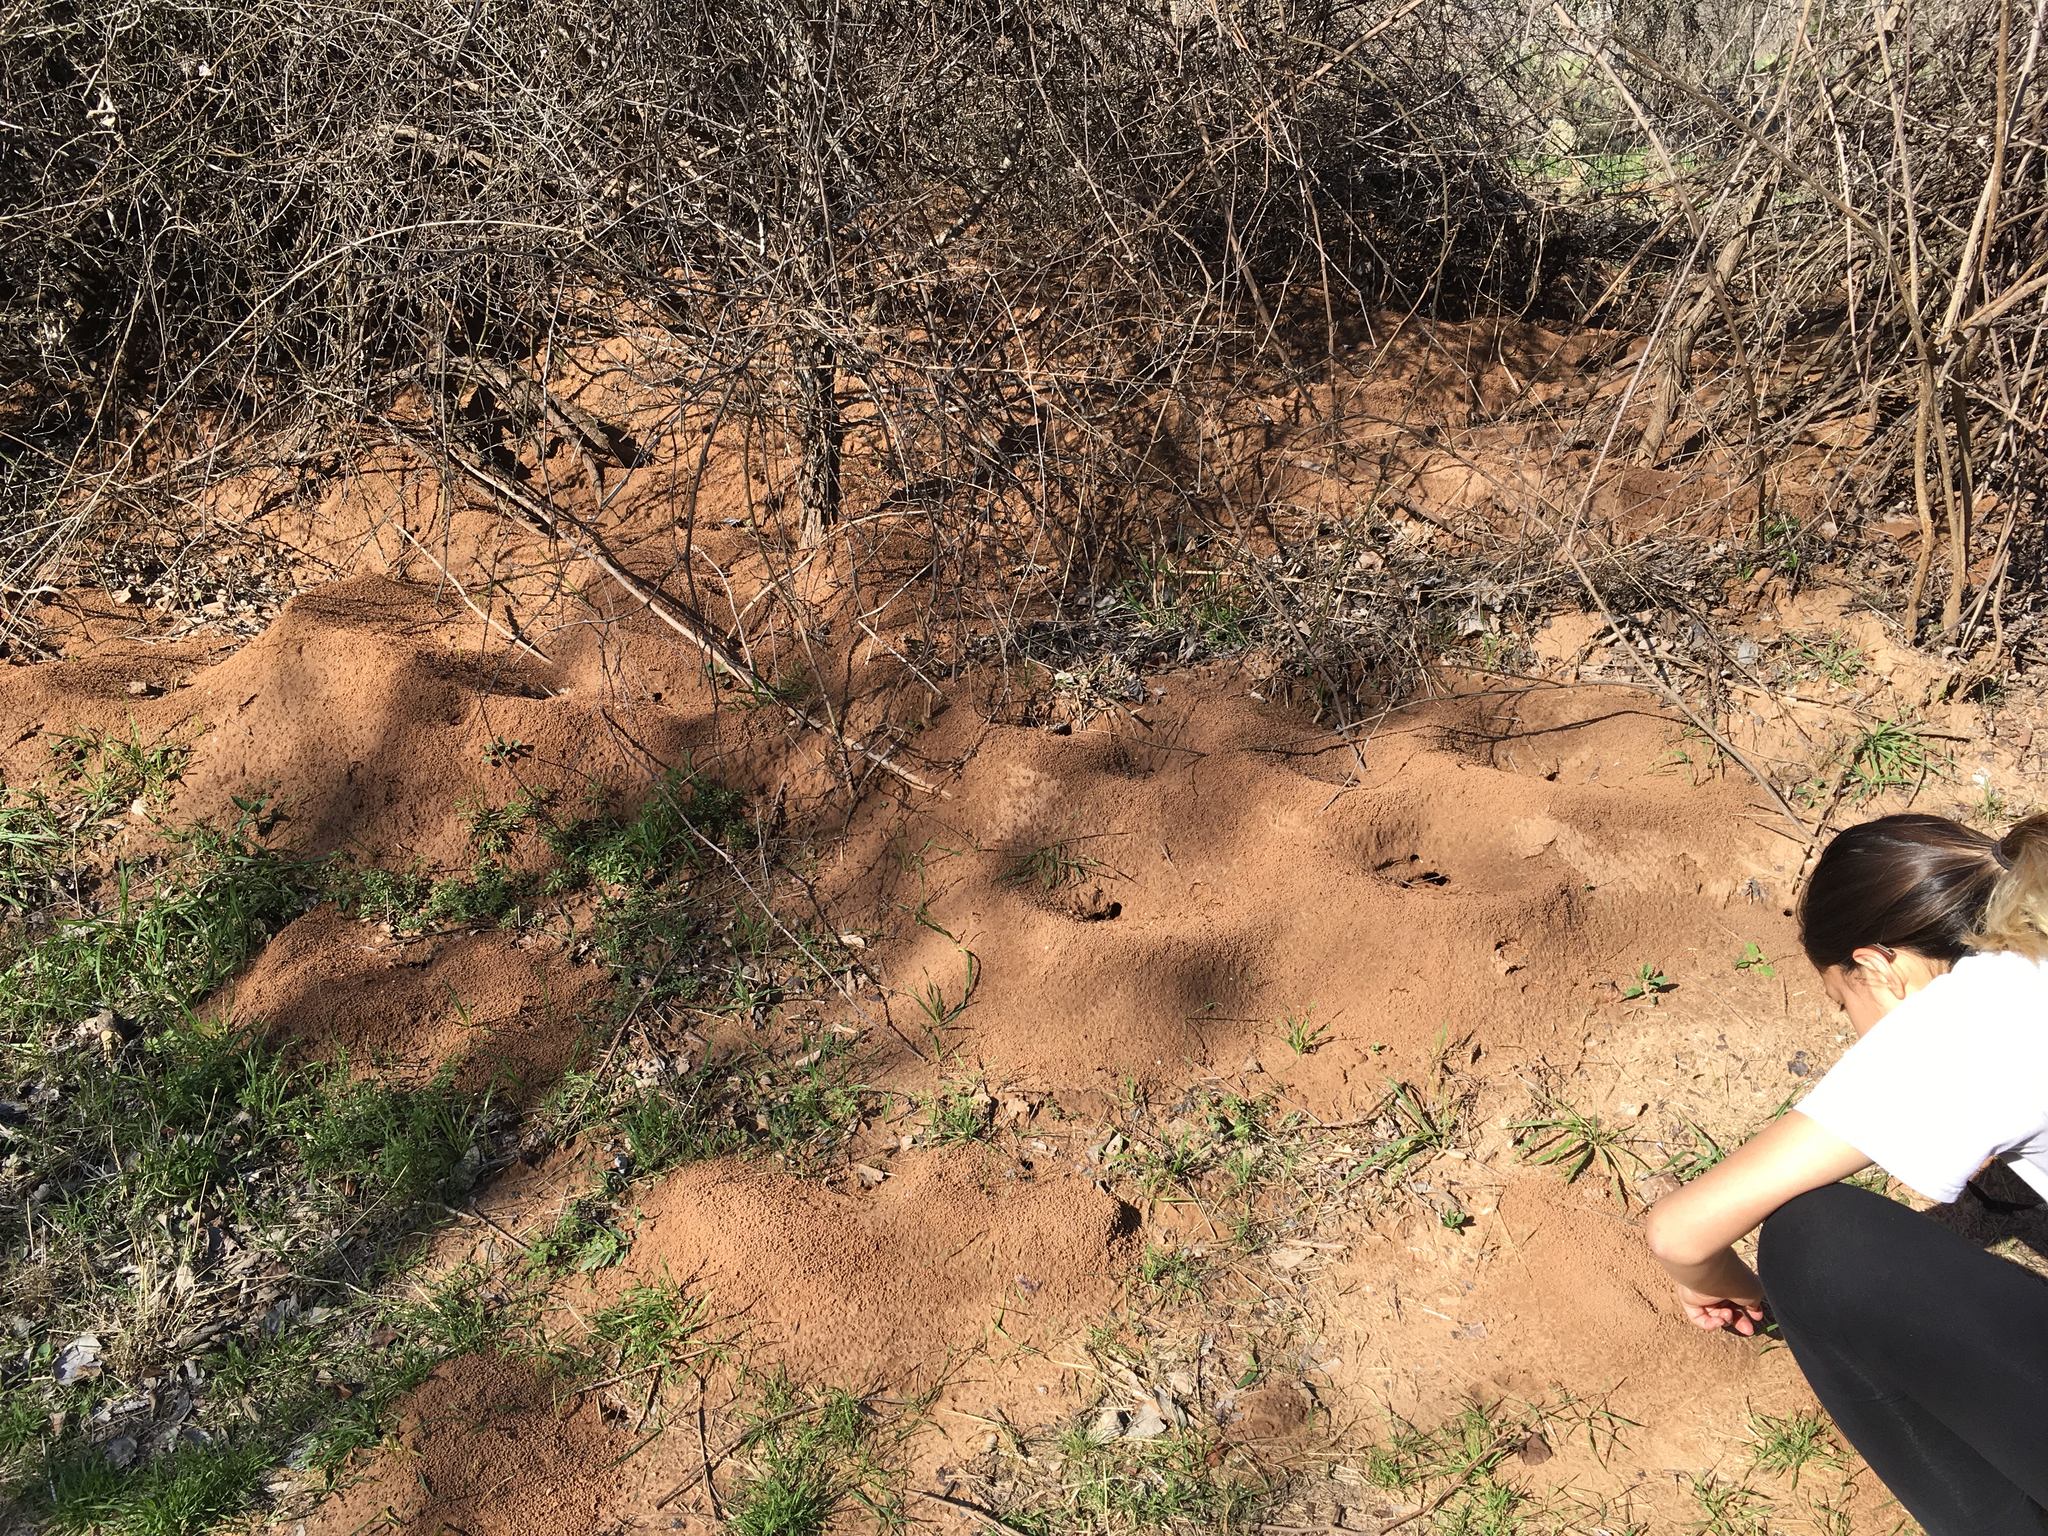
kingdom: Animalia
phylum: Arthropoda
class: Insecta
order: Hymenoptera
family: Formicidae
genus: Atta
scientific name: Atta texana
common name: Texas leafcutting ant
